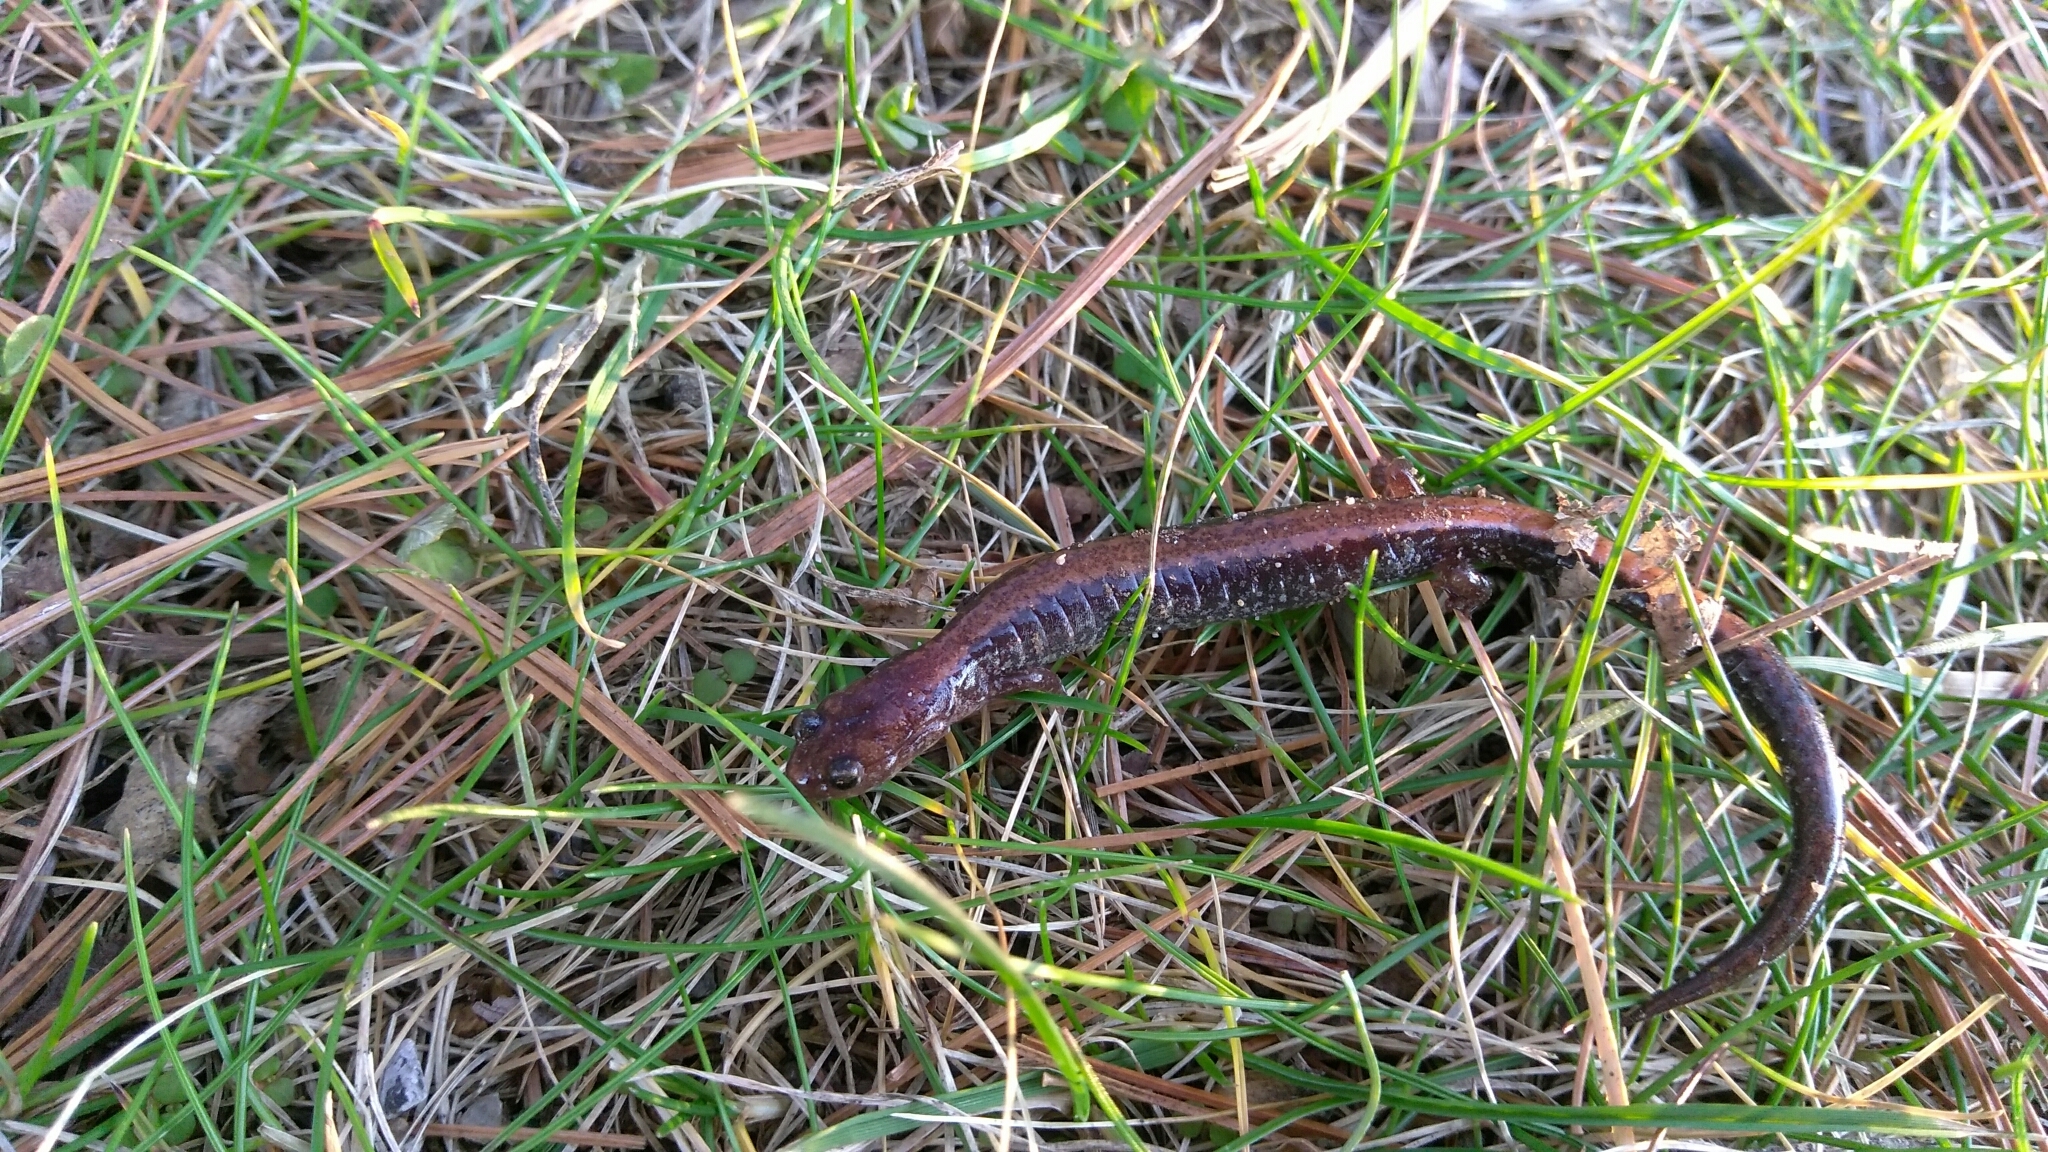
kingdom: Animalia
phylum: Chordata
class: Amphibia
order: Caudata
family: Plethodontidae
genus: Plethodon
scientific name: Plethodon cinereus
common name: Redback salamander
